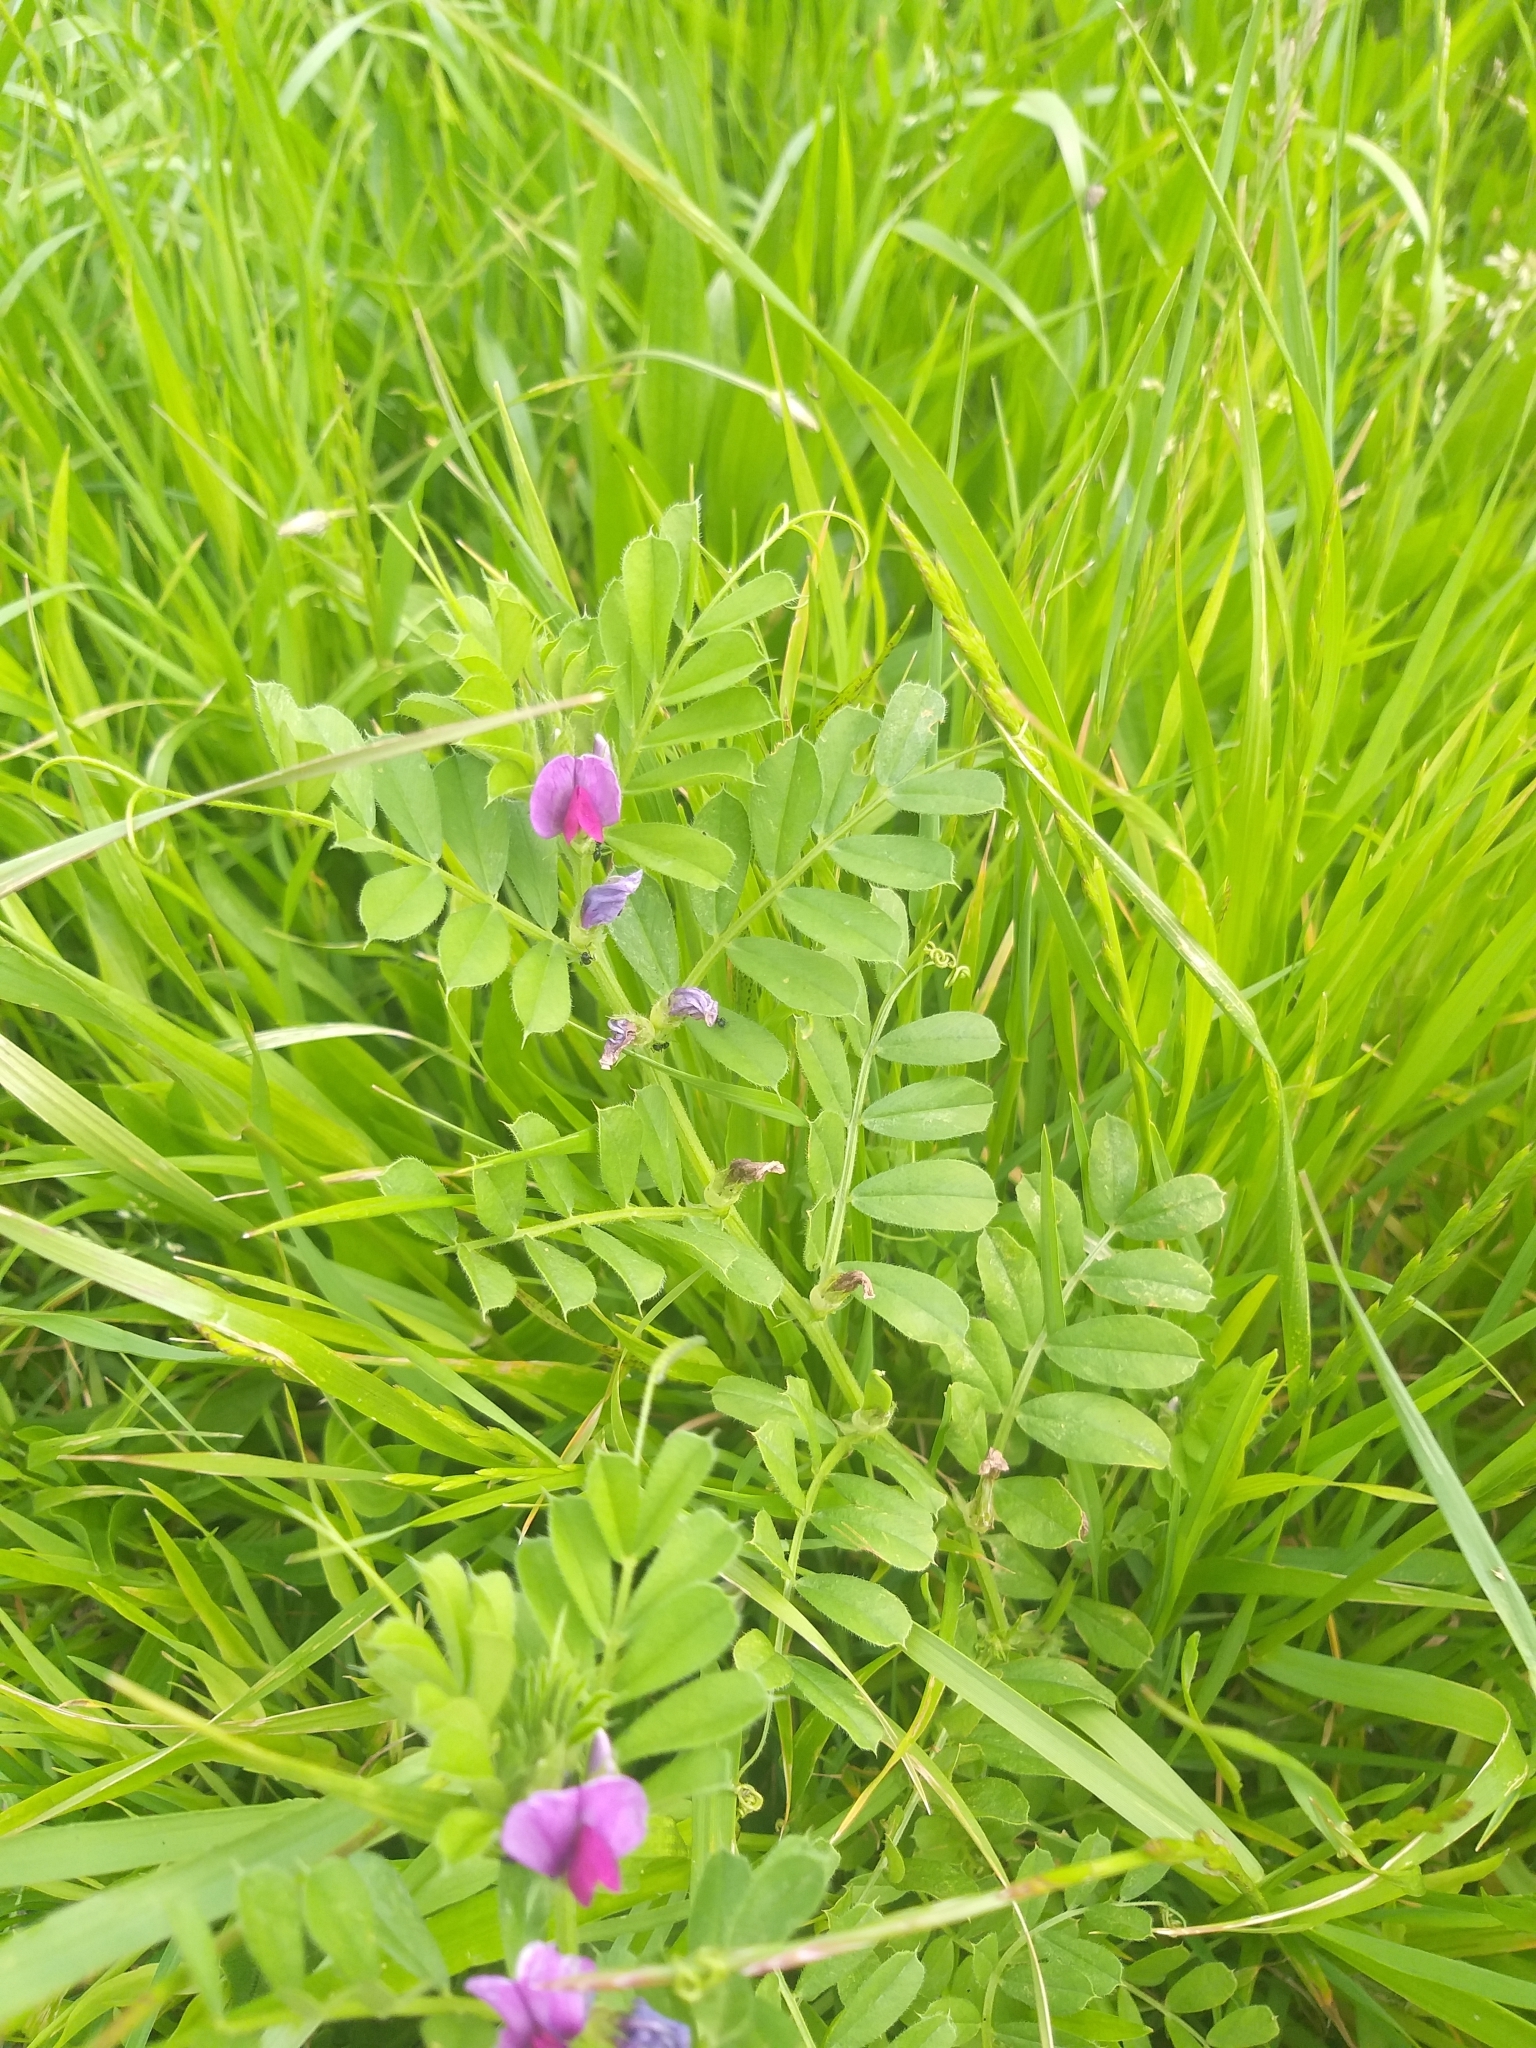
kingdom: Plantae
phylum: Tracheophyta
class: Magnoliopsida
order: Fabales
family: Fabaceae
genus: Vicia
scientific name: Vicia sativa
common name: Garden vetch
